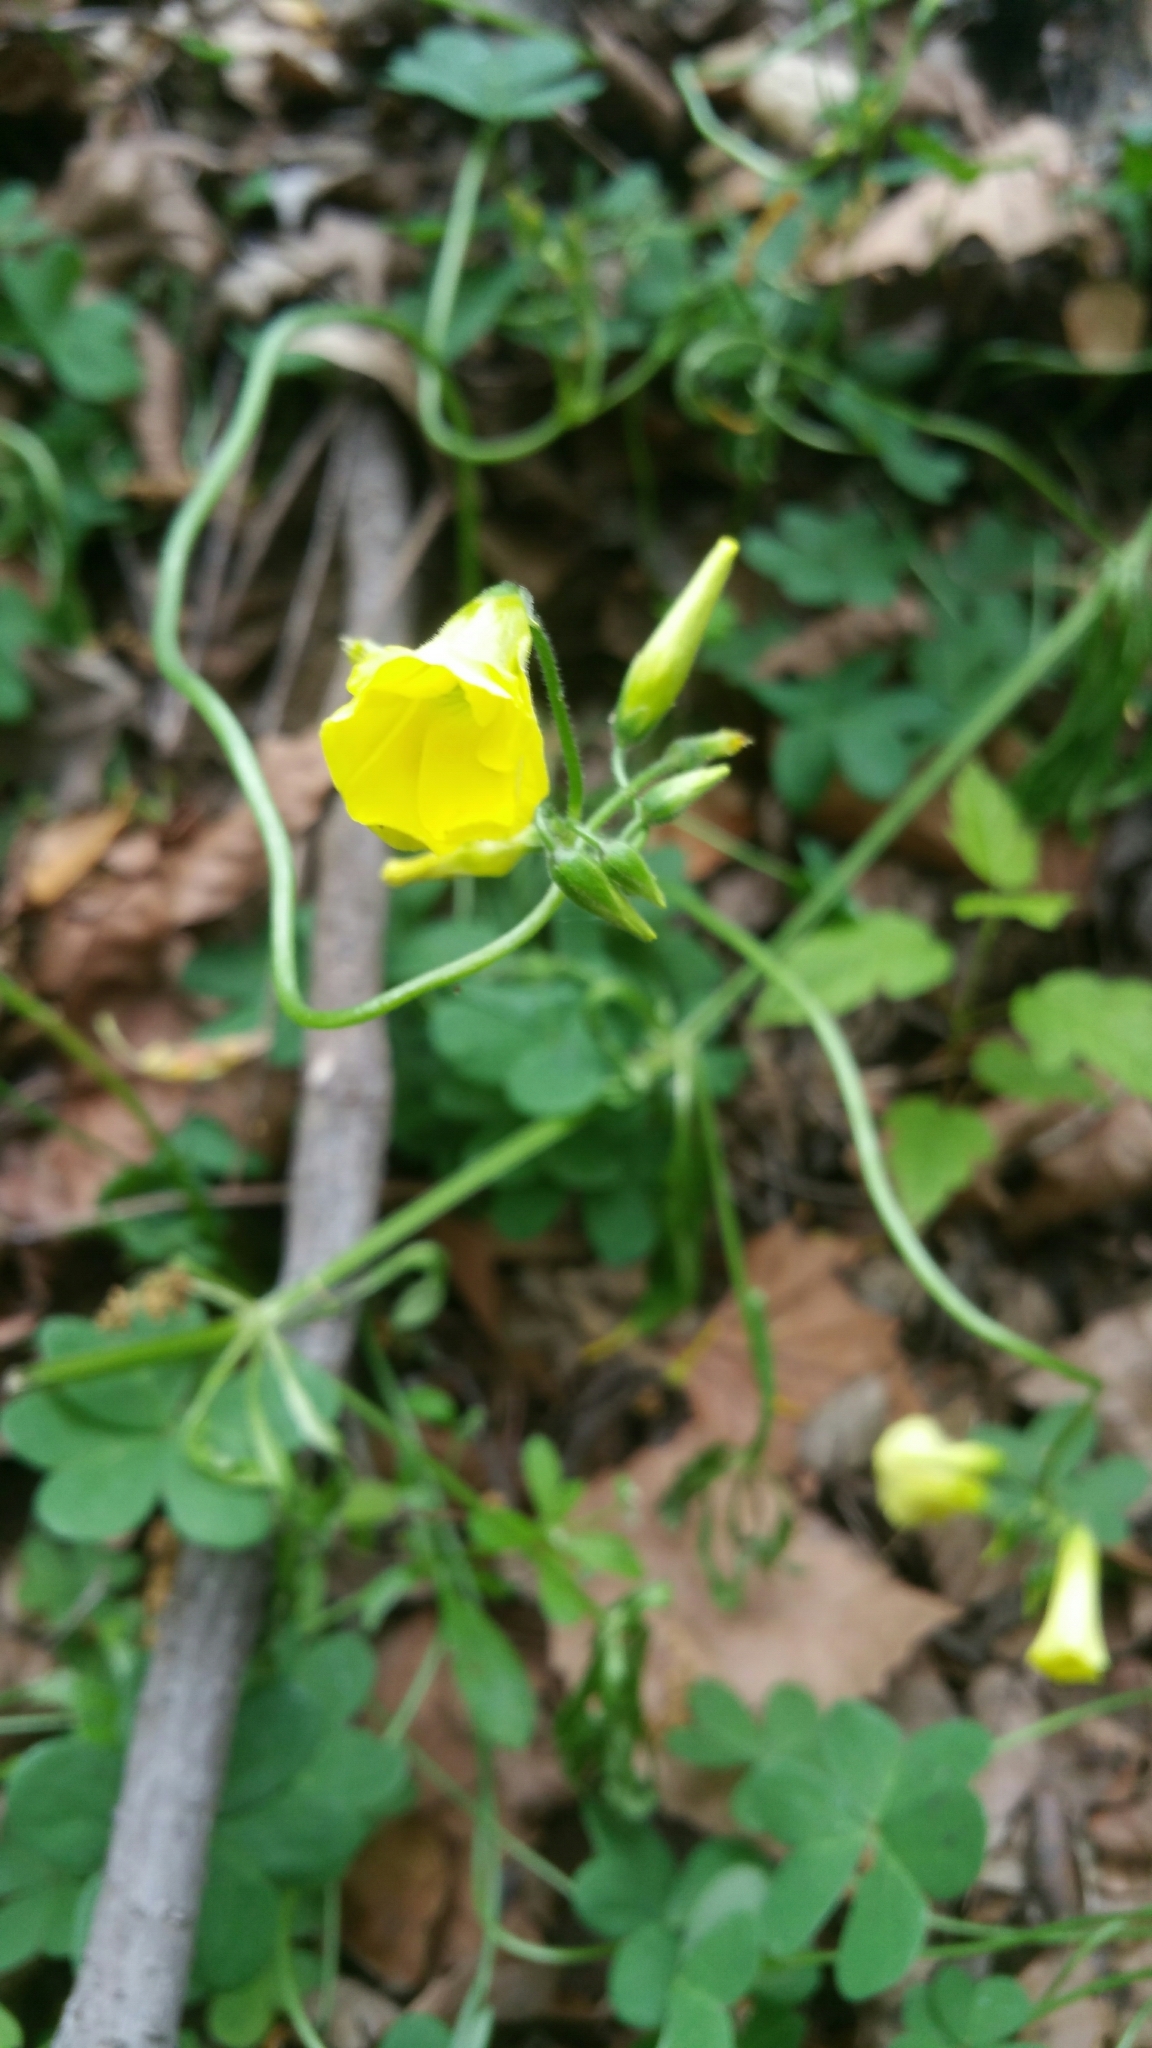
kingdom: Plantae
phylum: Tracheophyta
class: Magnoliopsida
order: Oxalidales
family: Oxalidaceae
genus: Oxalis
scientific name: Oxalis pes-caprae
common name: Bermuda-buttercup
